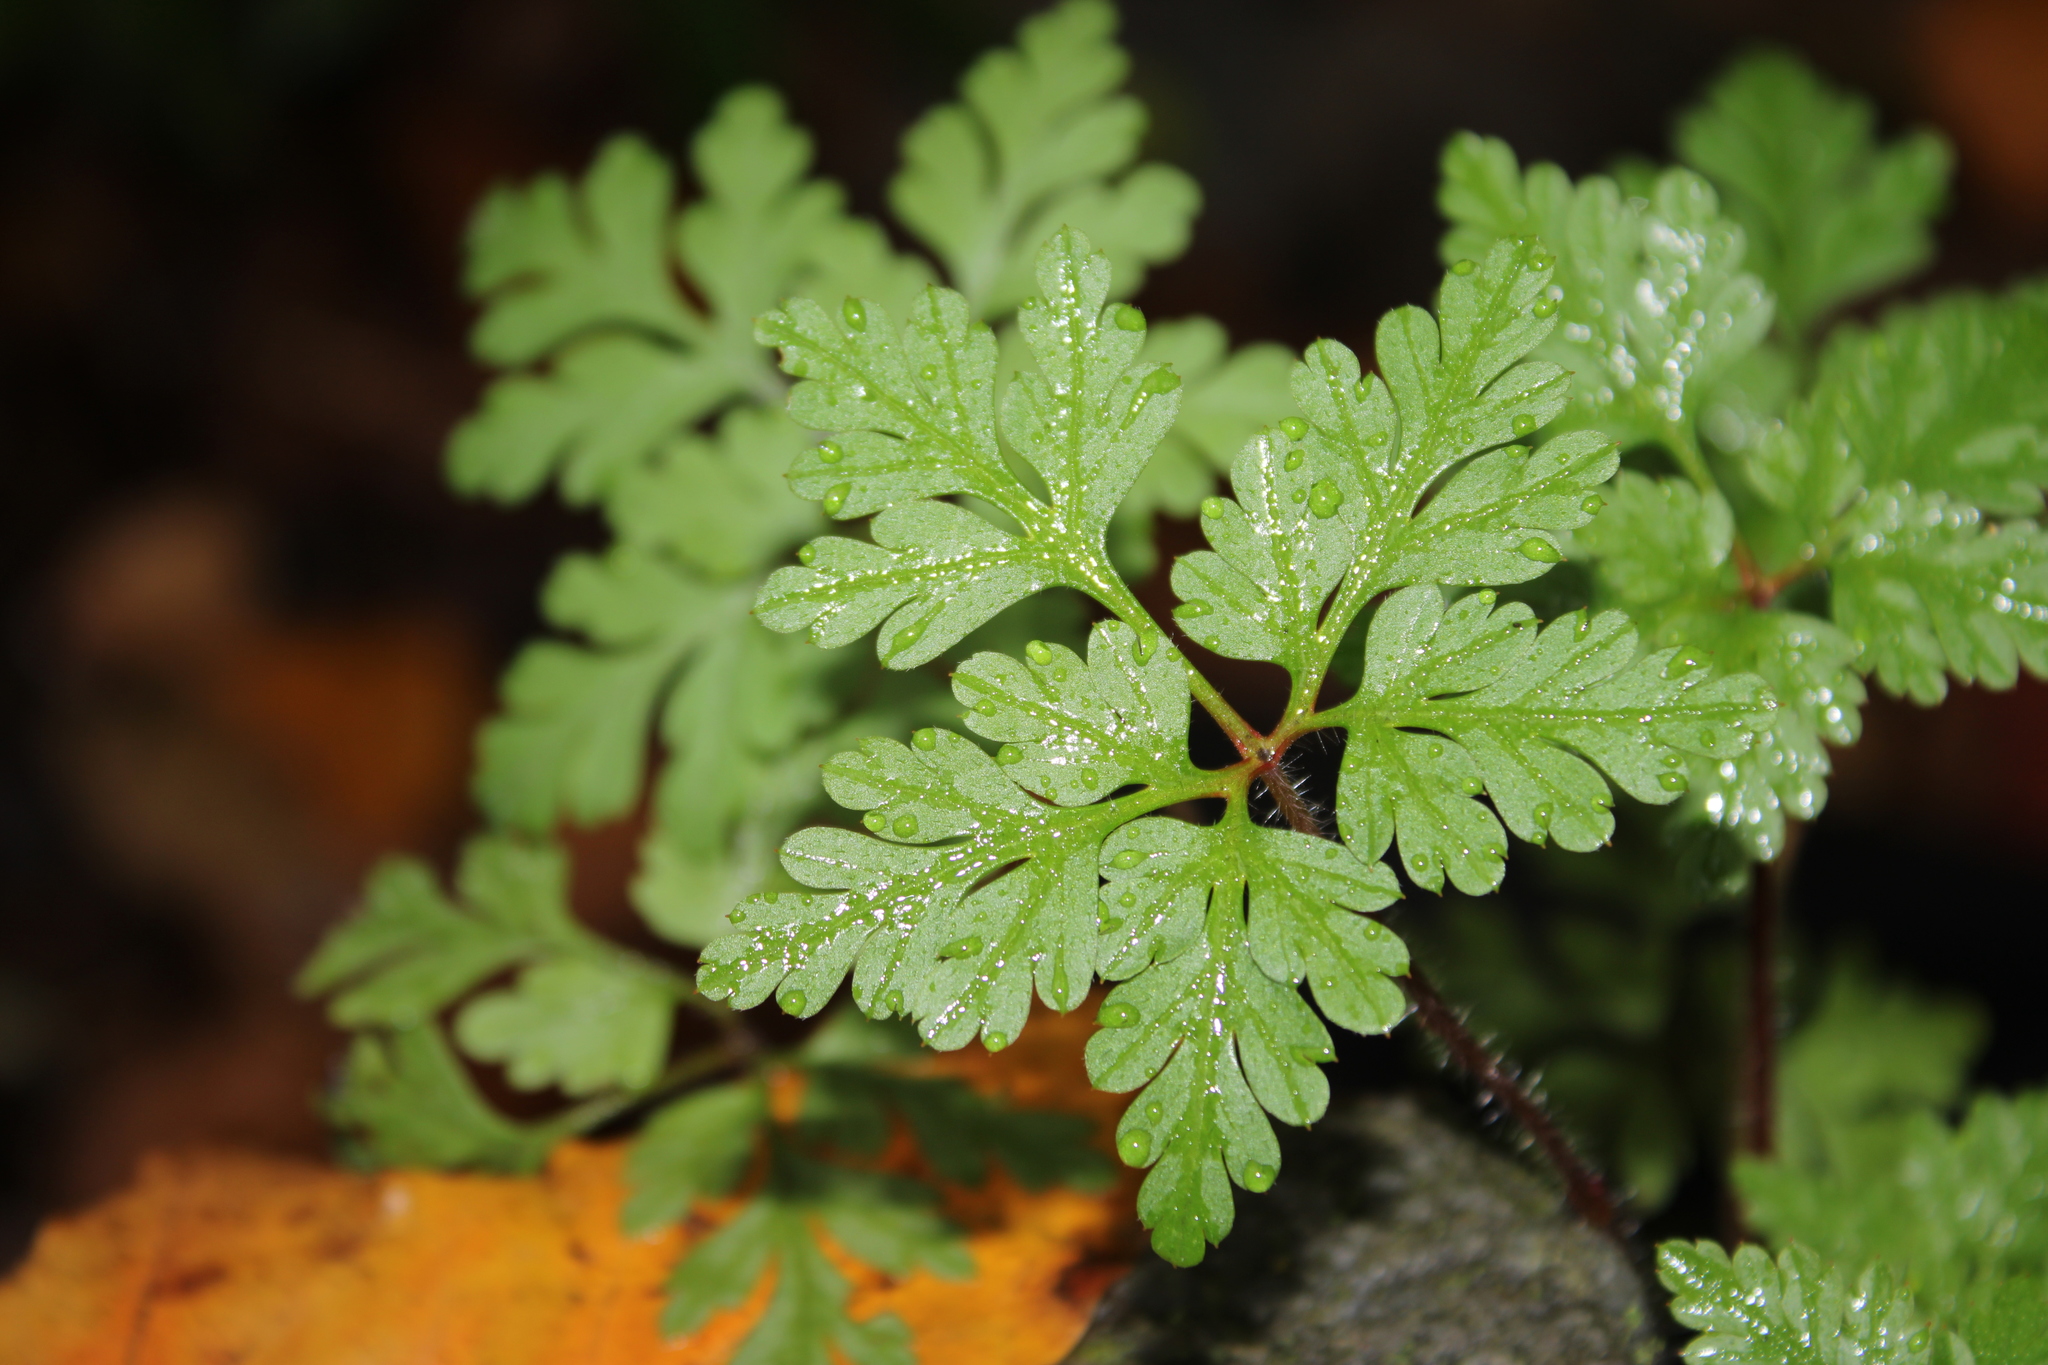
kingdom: Plantae
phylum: Tracheophyta
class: Magnoliopsida
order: Geraniales
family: Geraniaceae
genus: Geranium
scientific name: Geranium robertianum
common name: Herb-robert
